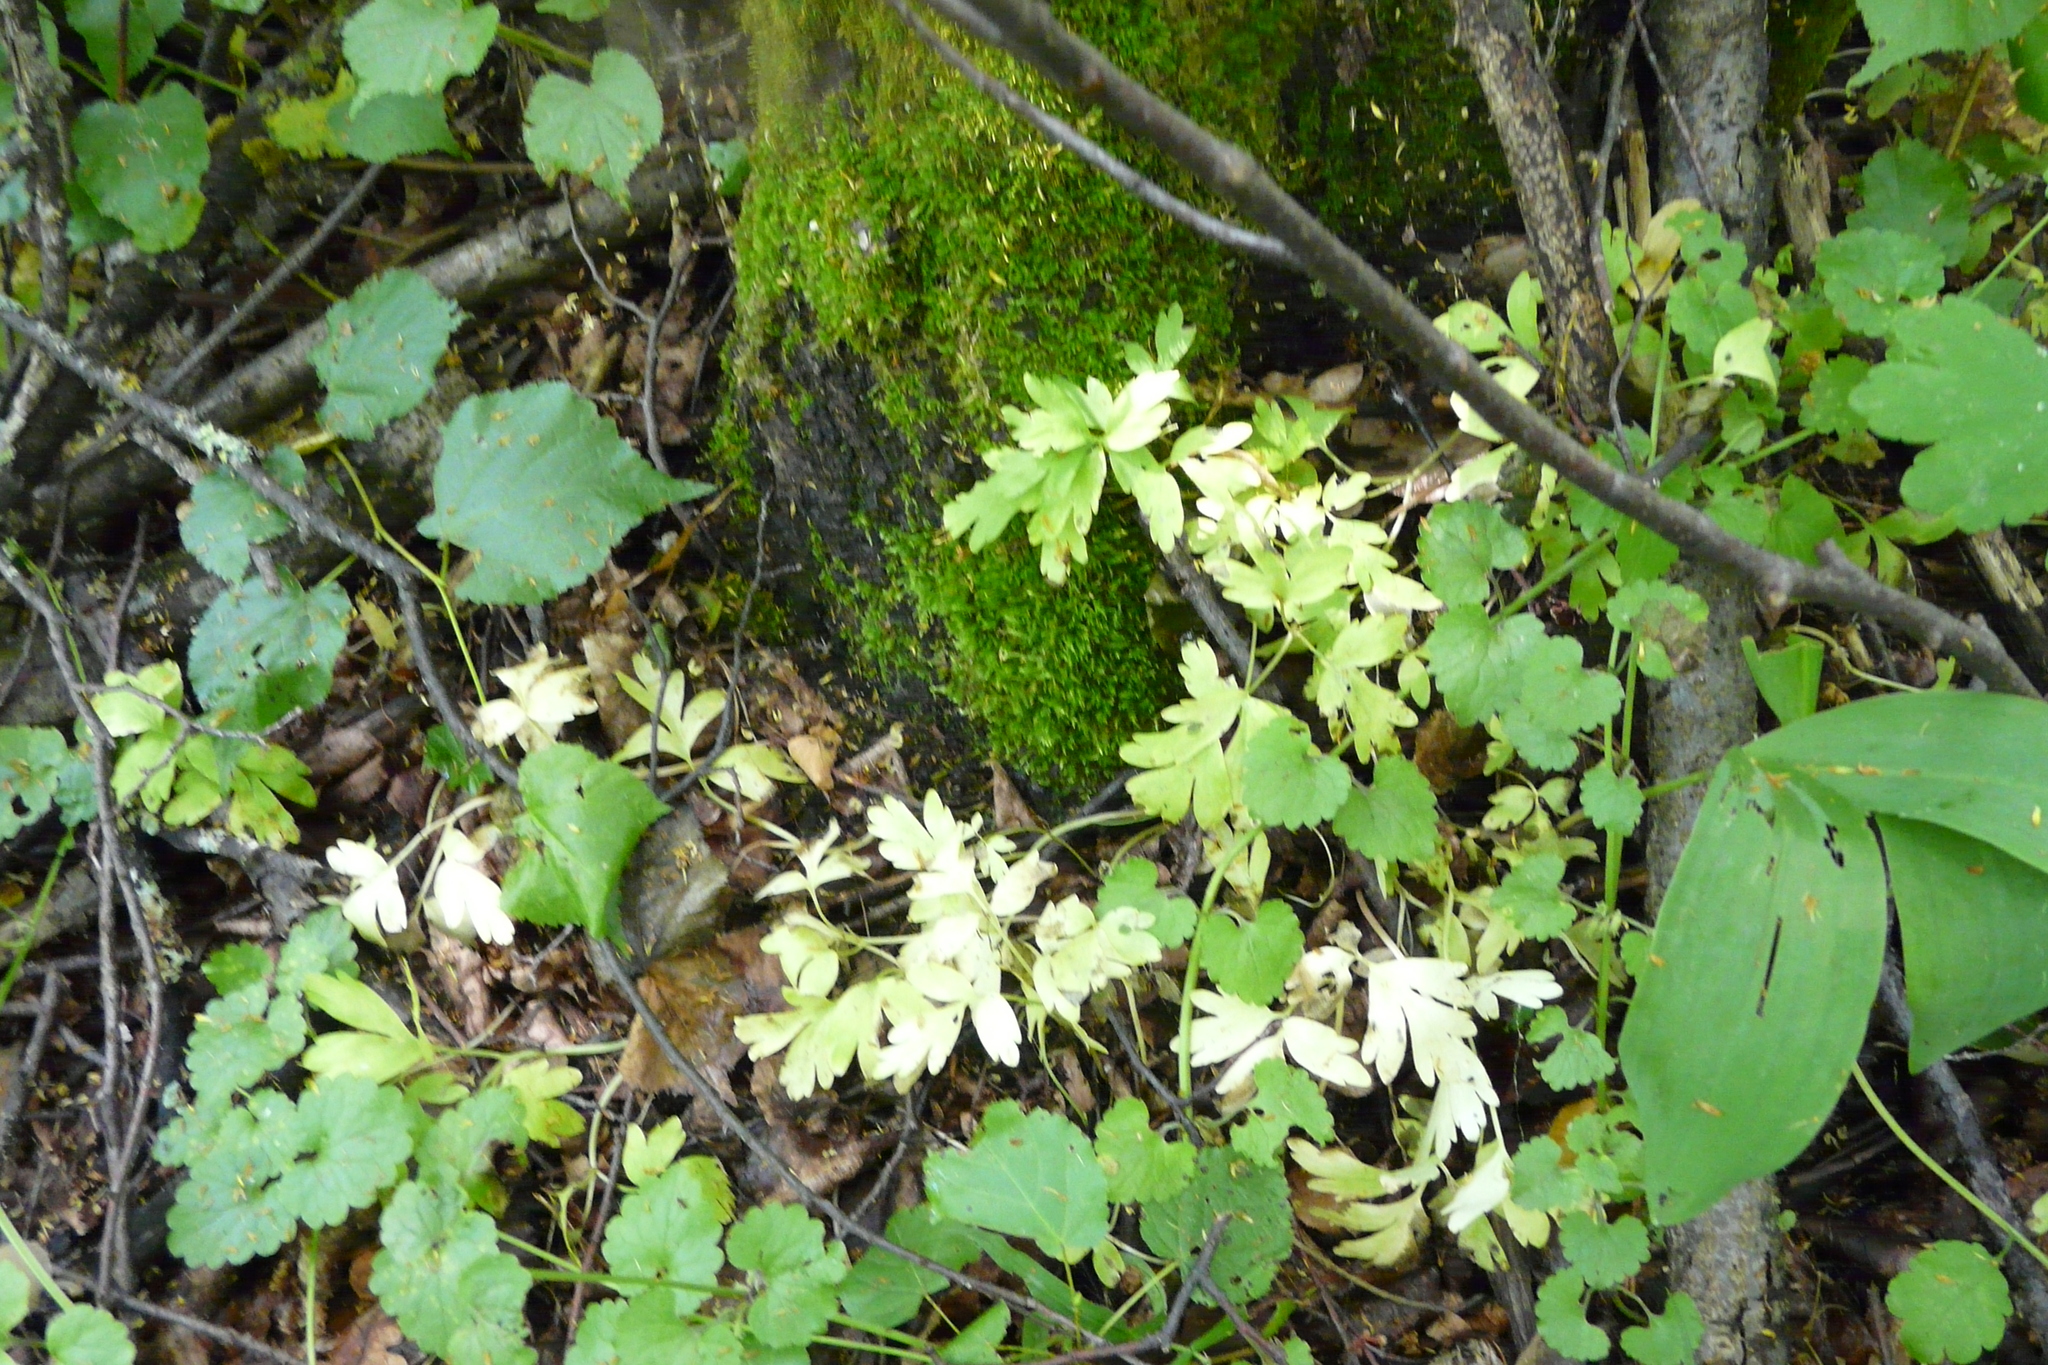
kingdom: Plantae
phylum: Tracheophyta
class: Magnoliopsida
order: Dipsacales
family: Viburnaceae
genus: Adoxa
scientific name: Adoxa moschatellina
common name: Moschatel
